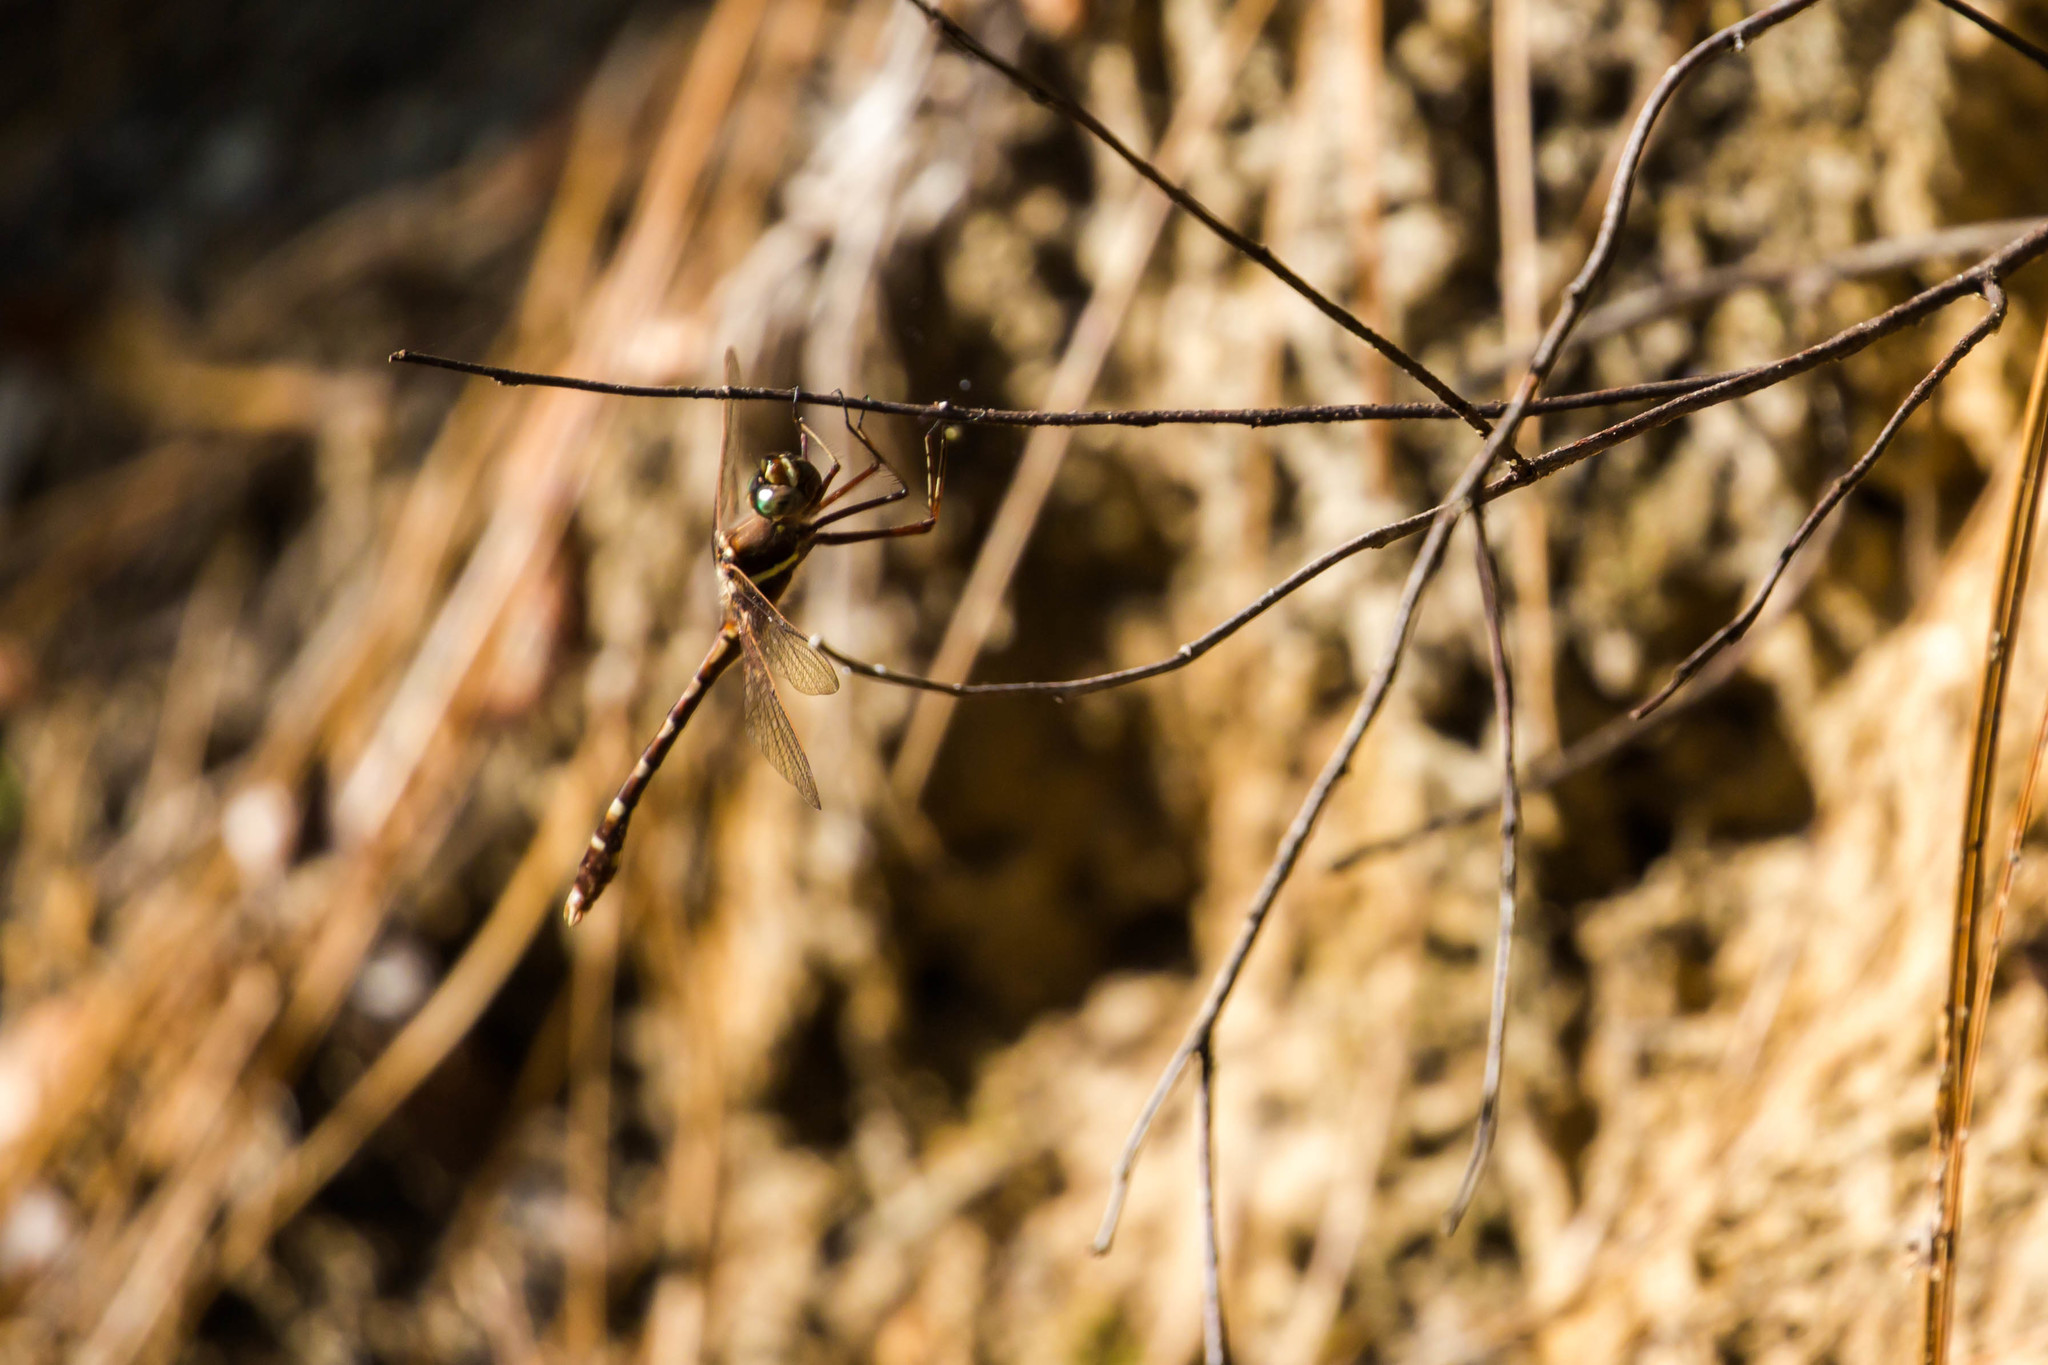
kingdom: Animalia
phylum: Arthropoda
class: Insecta
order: Odonata
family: Macromiidae
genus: Didymops
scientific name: Didymops transversa
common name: Stream cruiser
